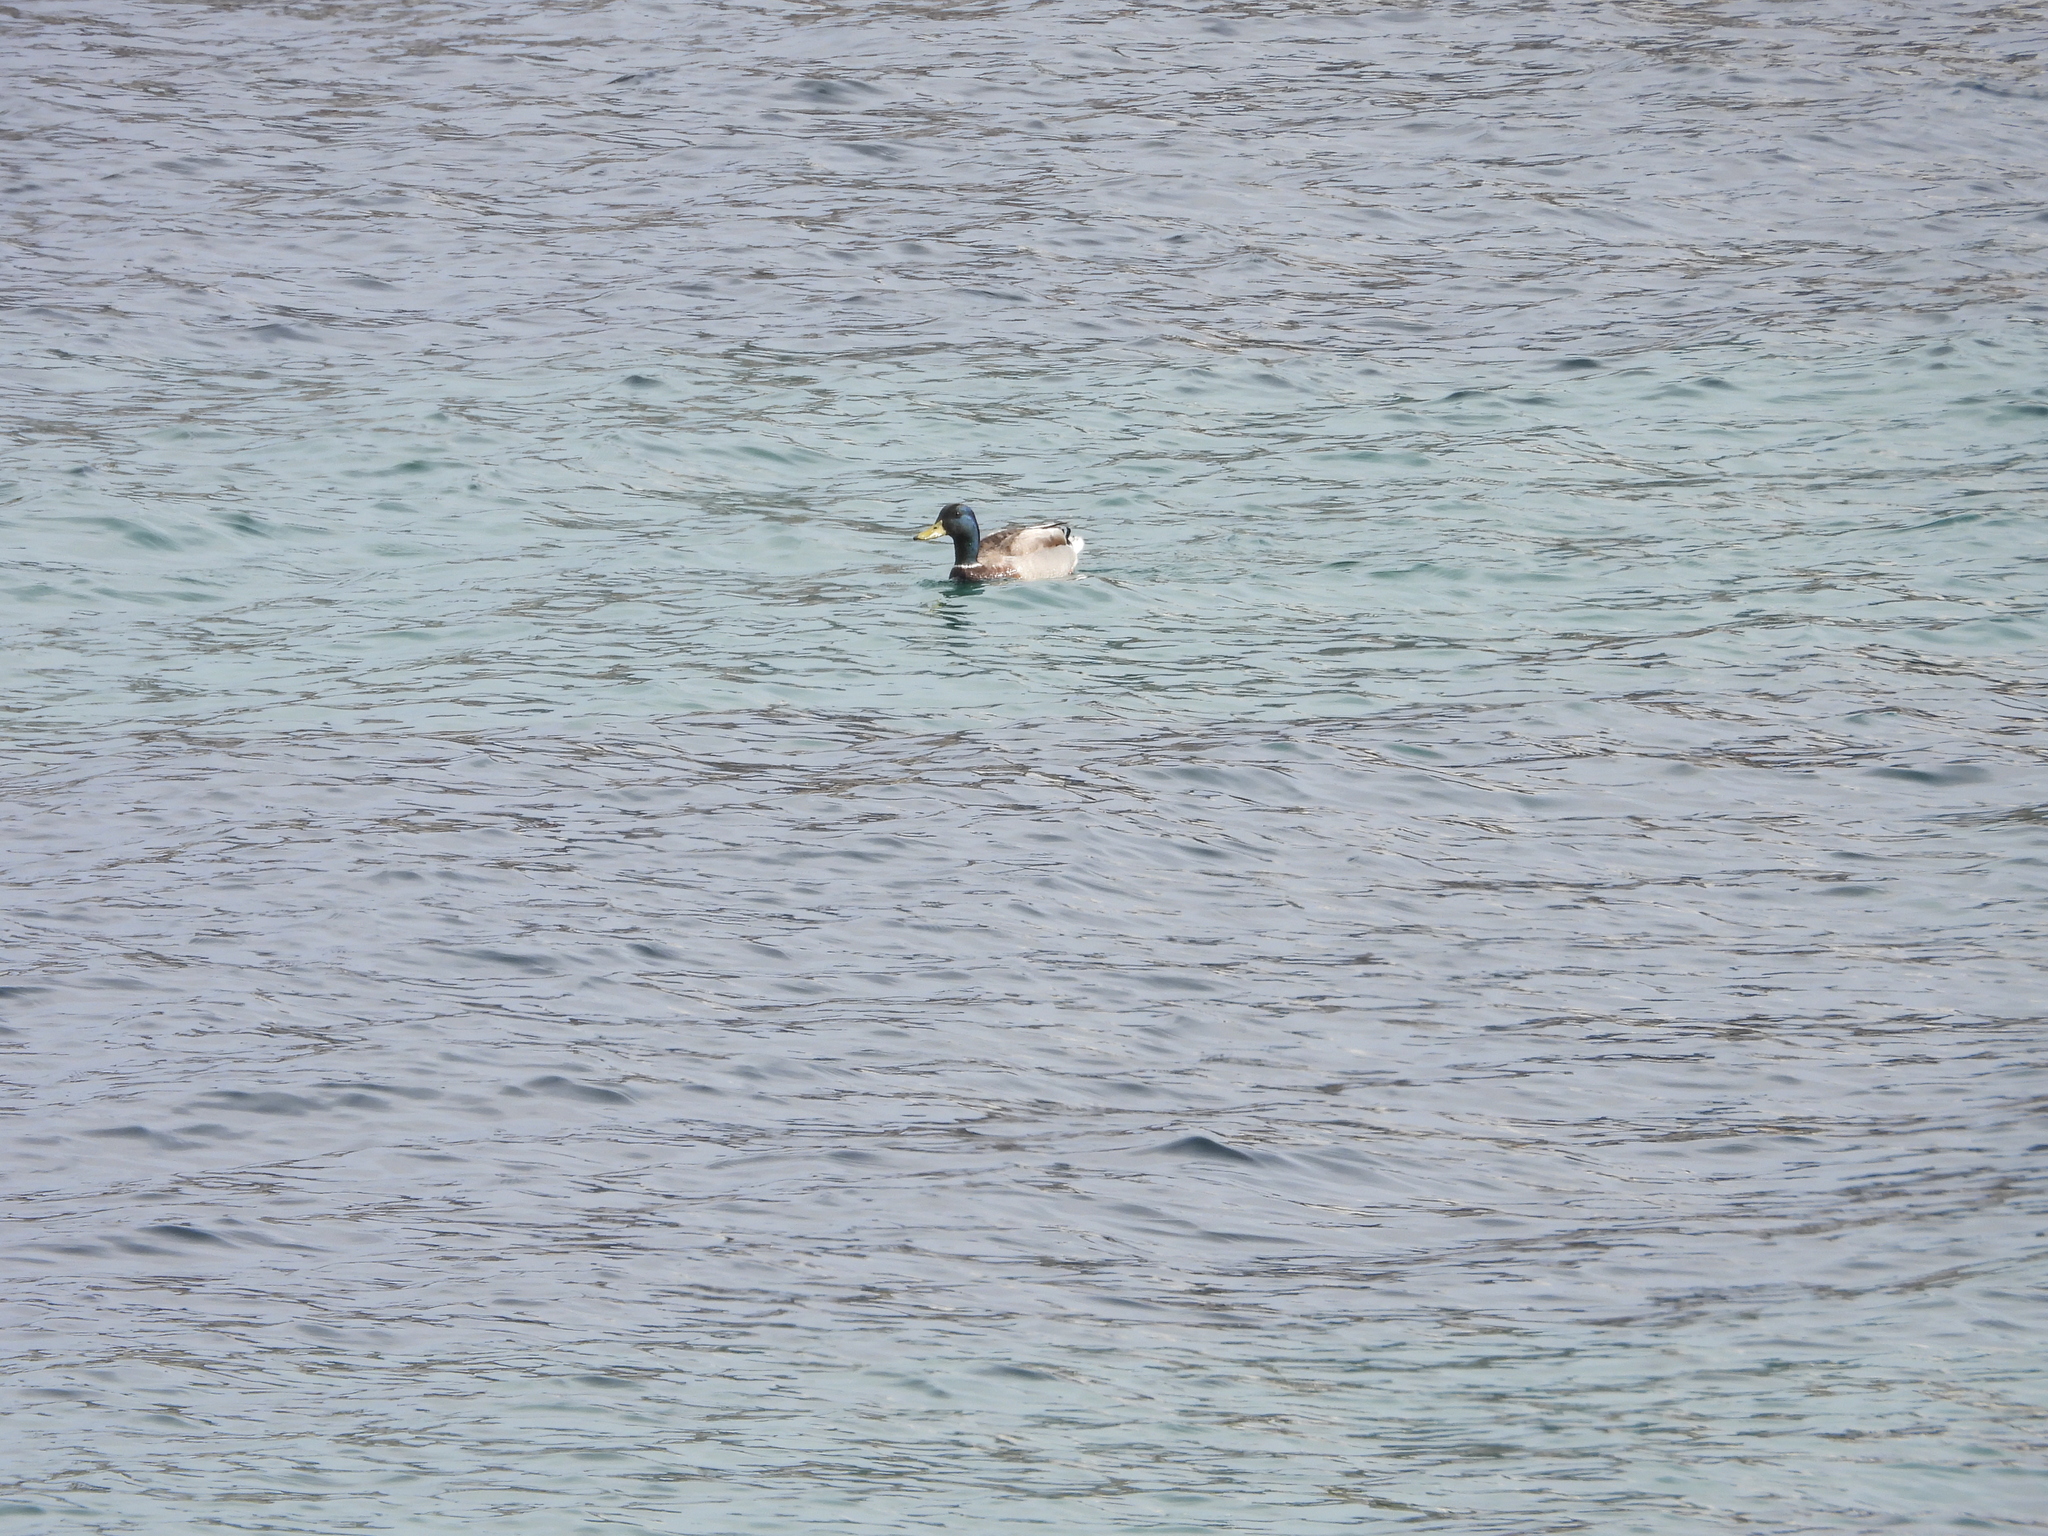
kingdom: Animalia
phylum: Chordata
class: Aves
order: Anseriformes
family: Anatidae
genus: Anas
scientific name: Anas platyrhynchos
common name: Mallard
